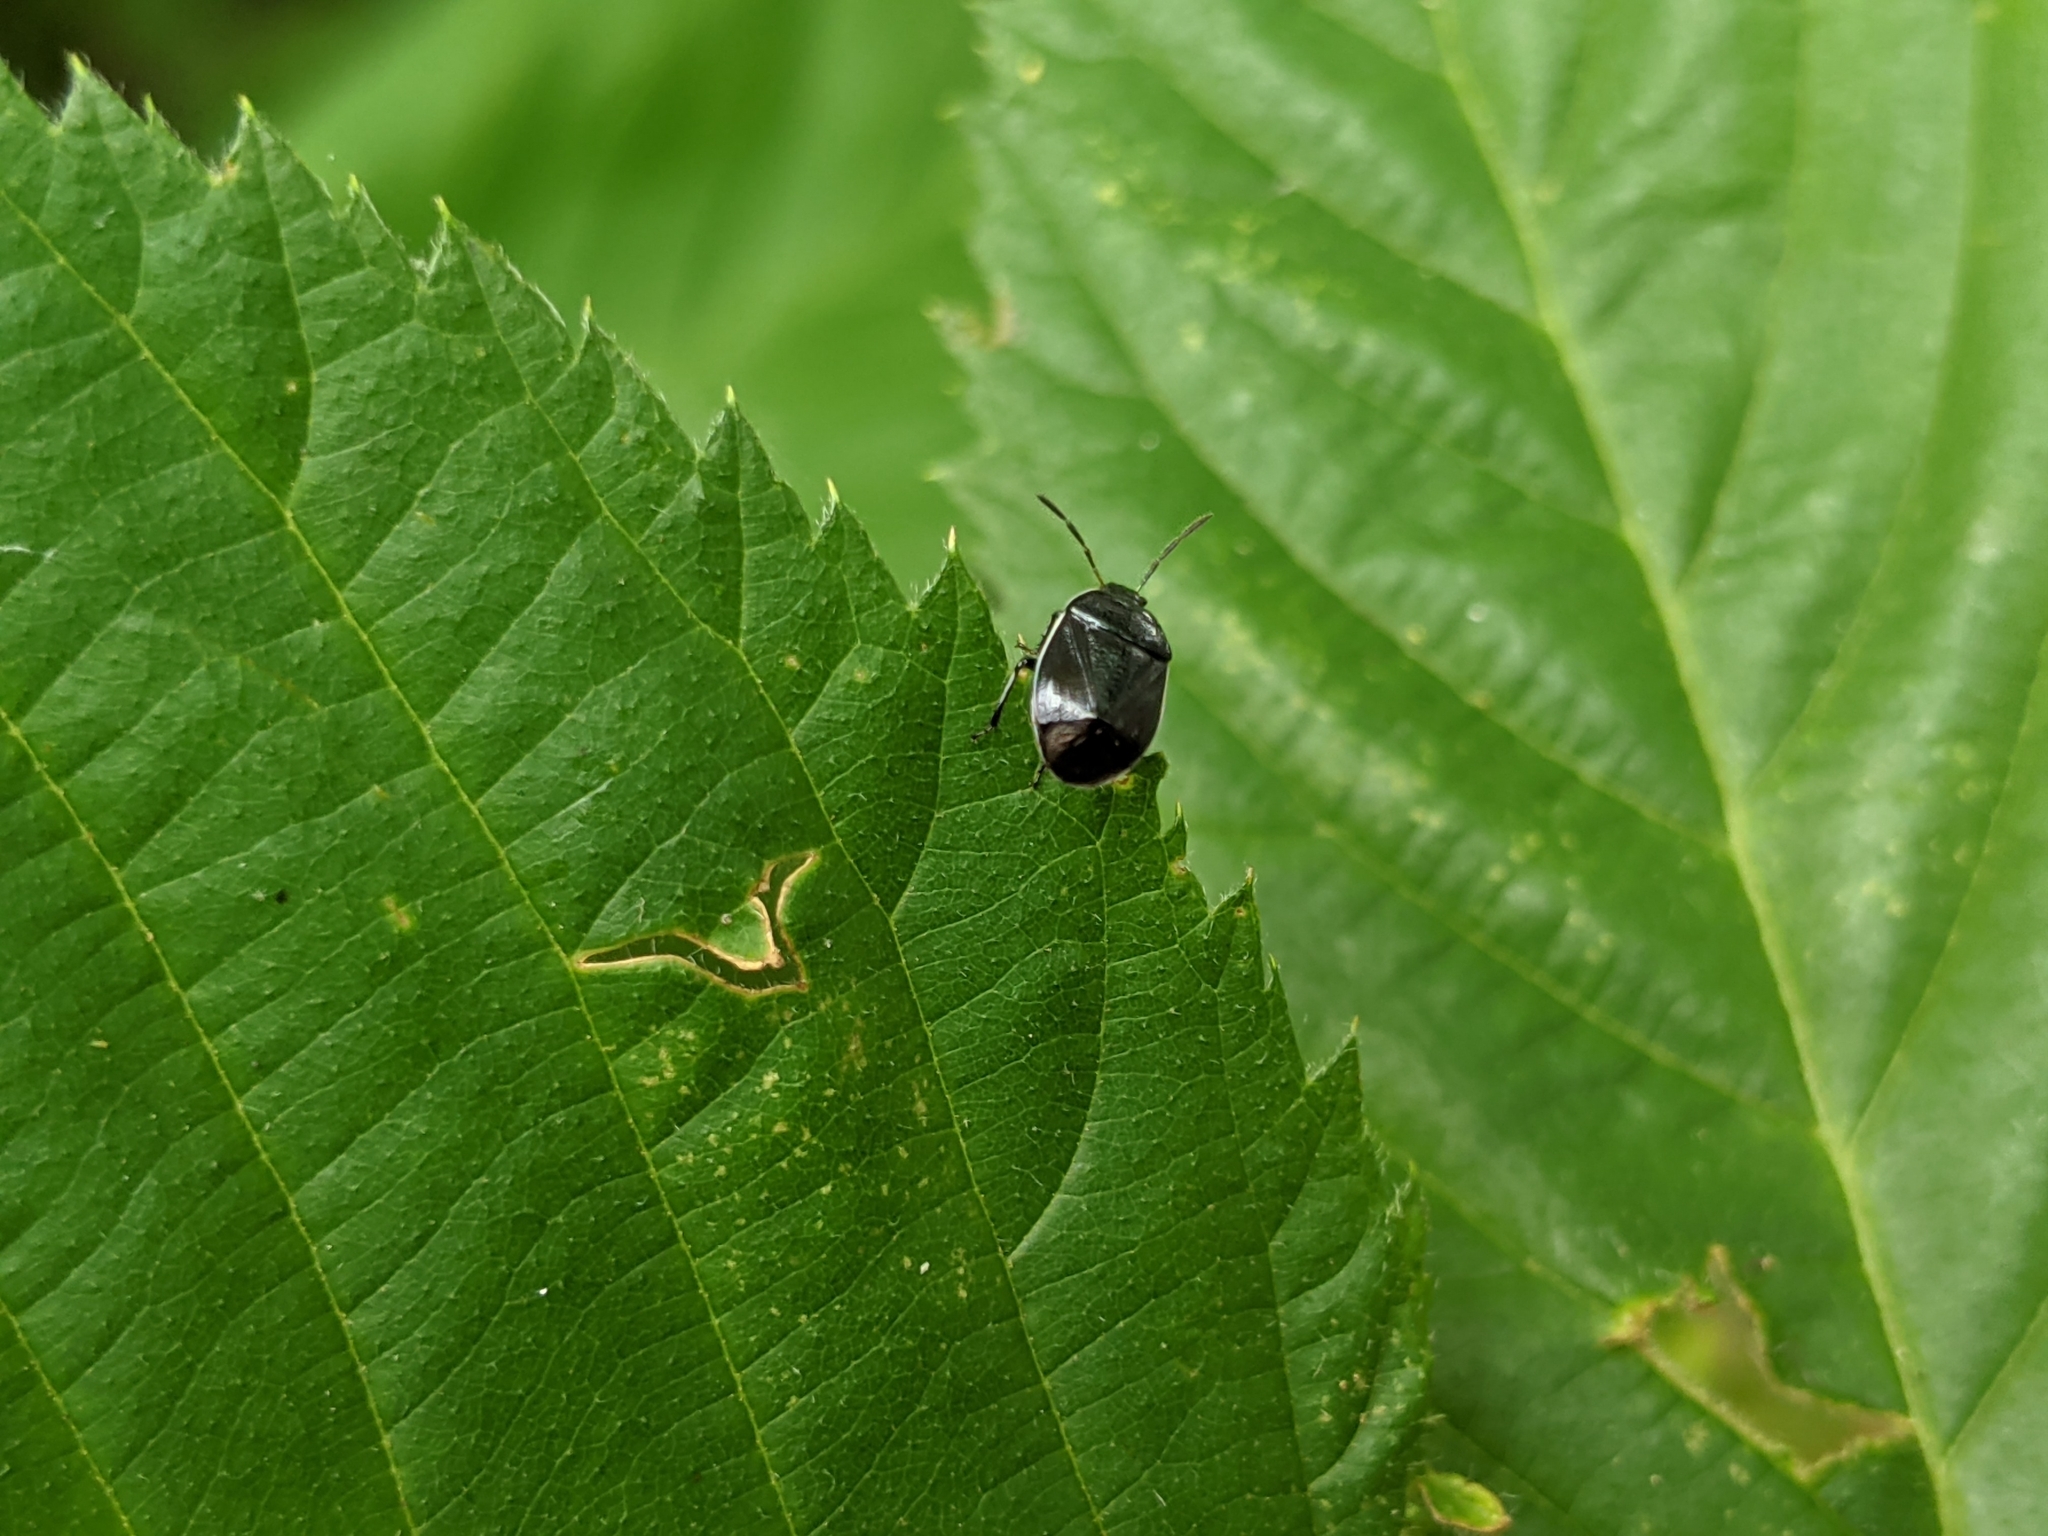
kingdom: Animalia
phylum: Arthropoda
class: Insecta
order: Hemiptera
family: Cydnidae
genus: Sehirus
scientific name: Sehirus cinctus
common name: White-margined burrower bug
